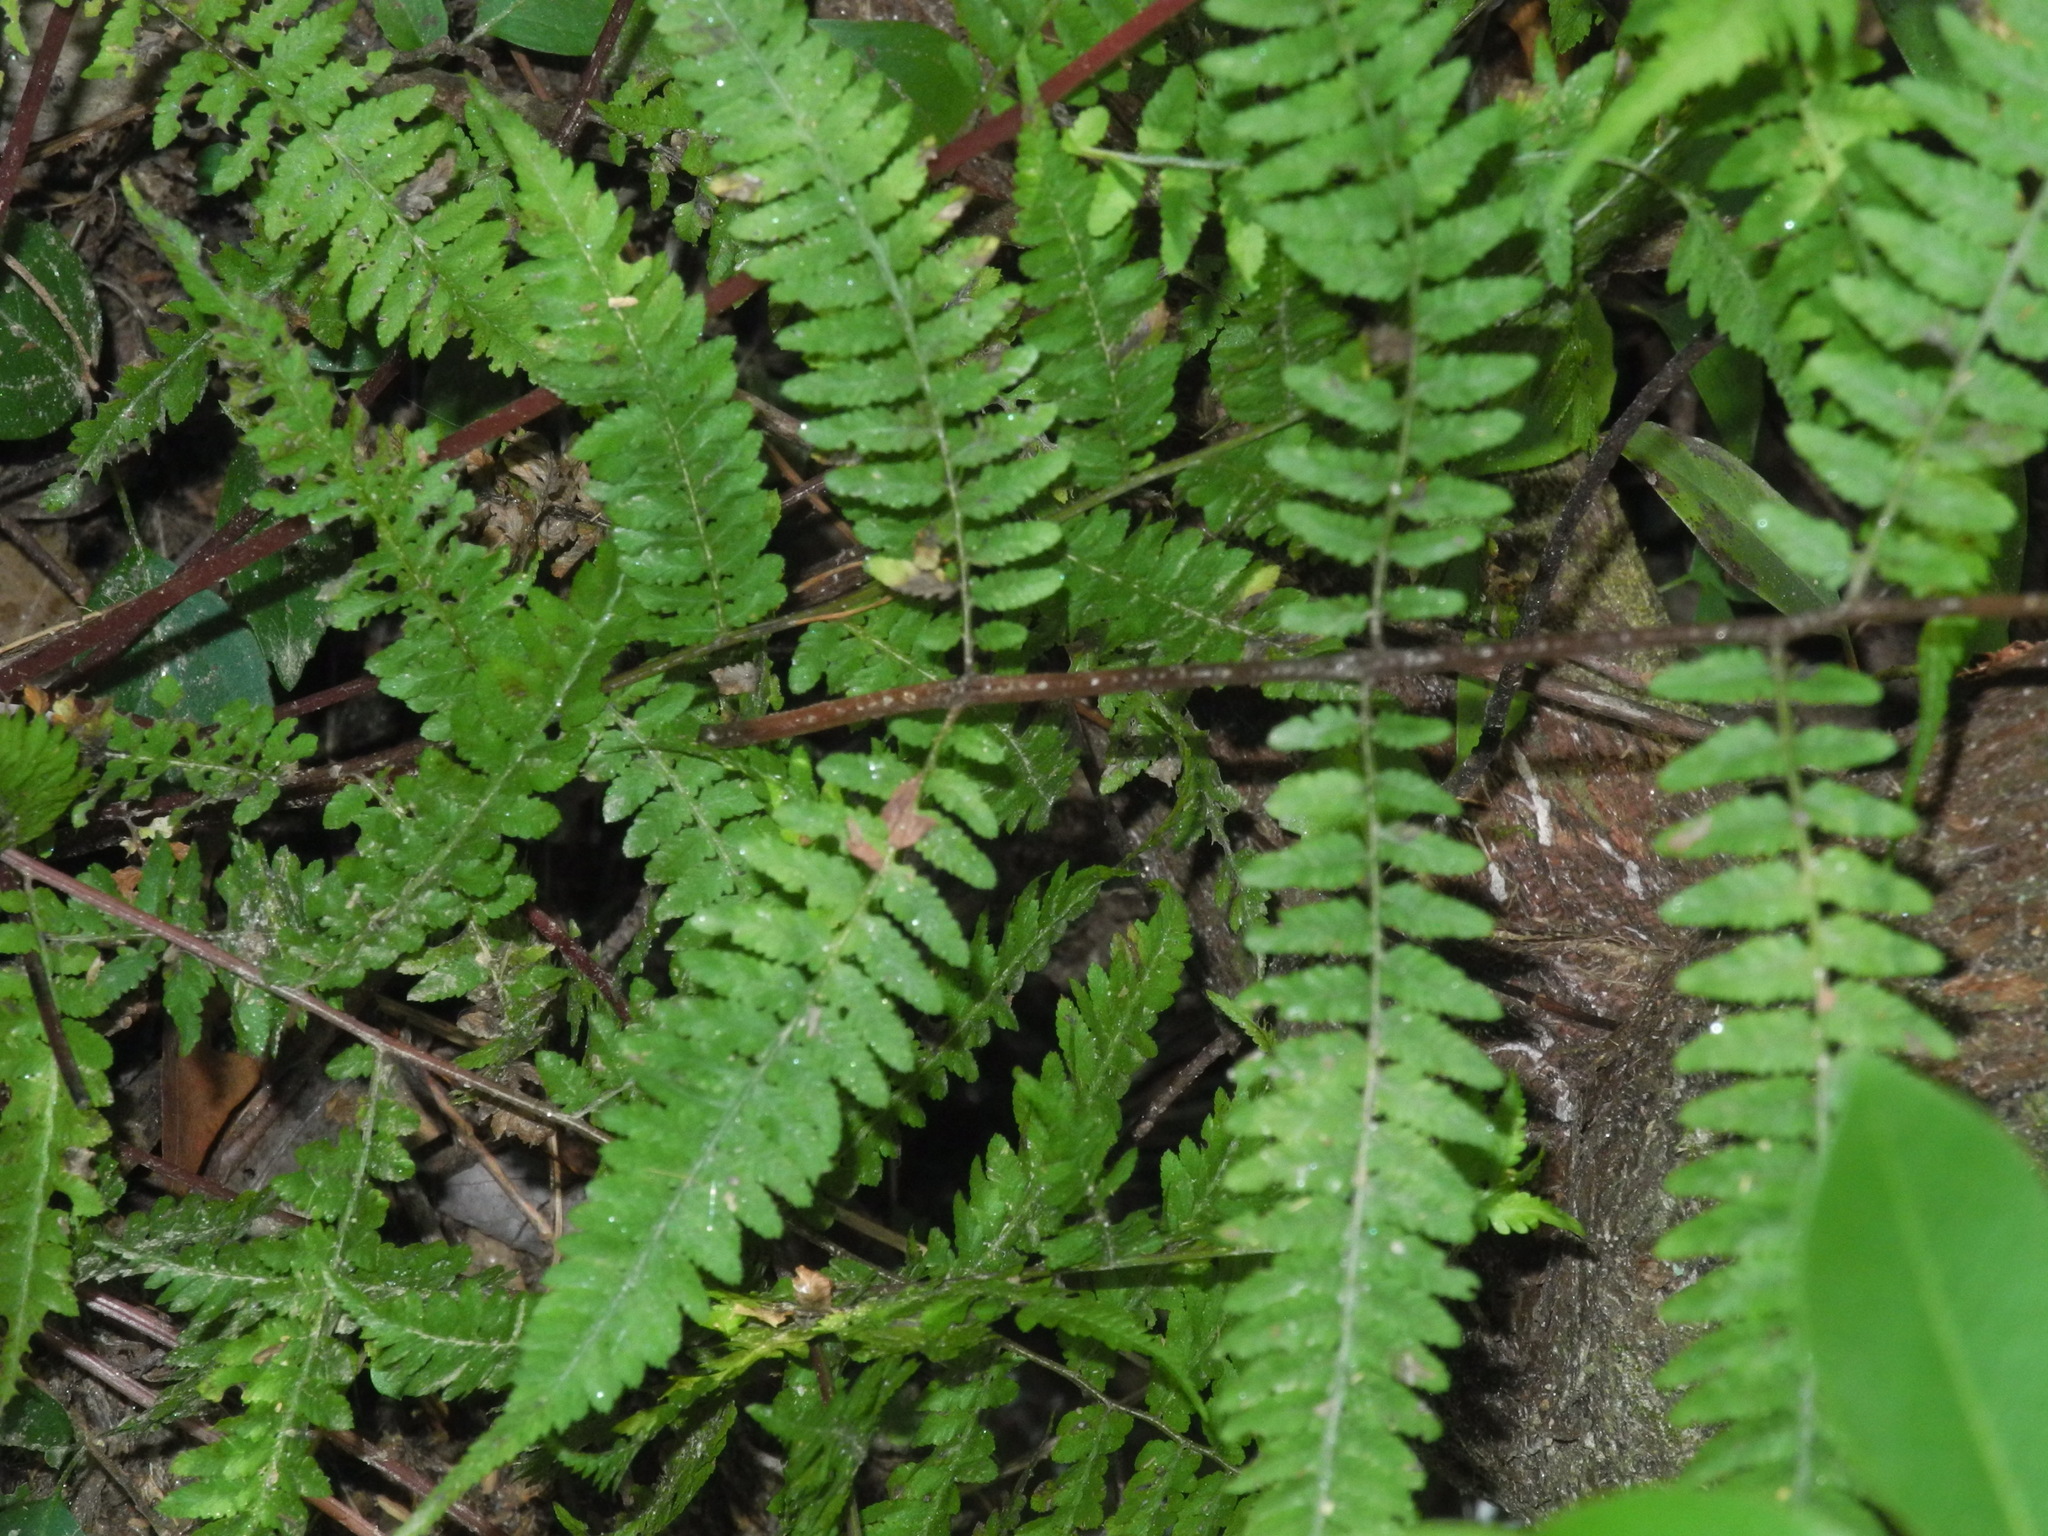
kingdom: Plantae
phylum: Tracheophyta
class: Polypodiopsida
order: Polypodiales
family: Athyriaceae
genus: Athyrium
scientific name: Athyrium asplenioides
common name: Southern lady fern
